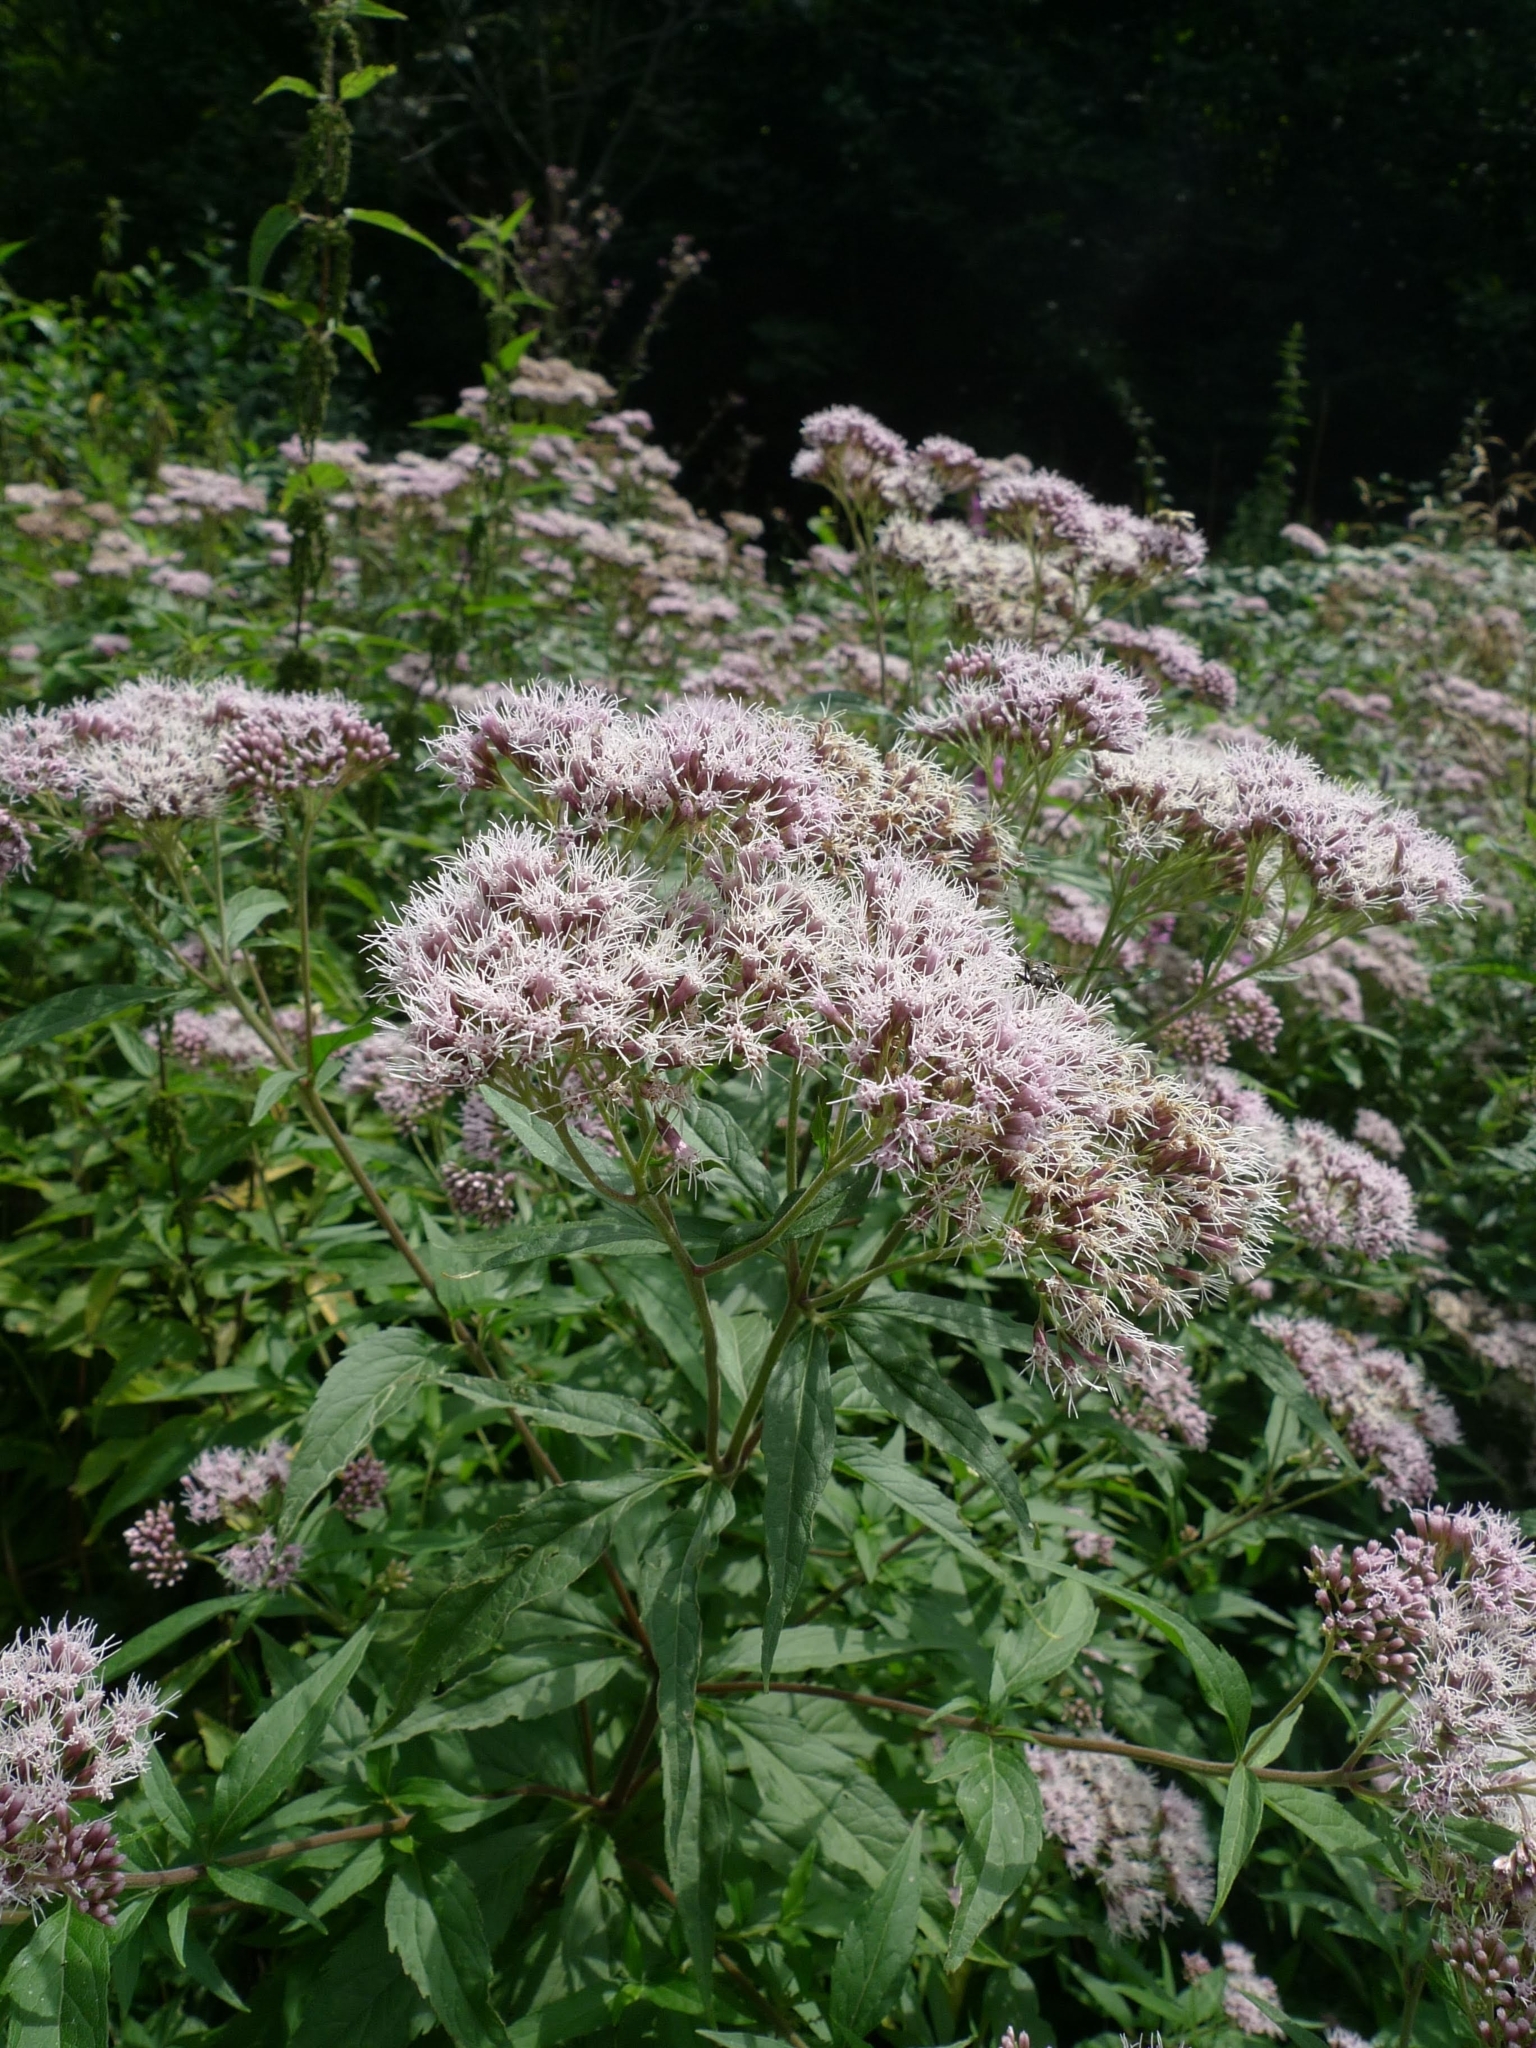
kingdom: Plantae
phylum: Tracheophyta
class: Magnoliopsida
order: Asterales
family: Asteraceae
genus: Eupatorium
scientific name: Eupatorium cannabinum
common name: Hemp-agrimony
